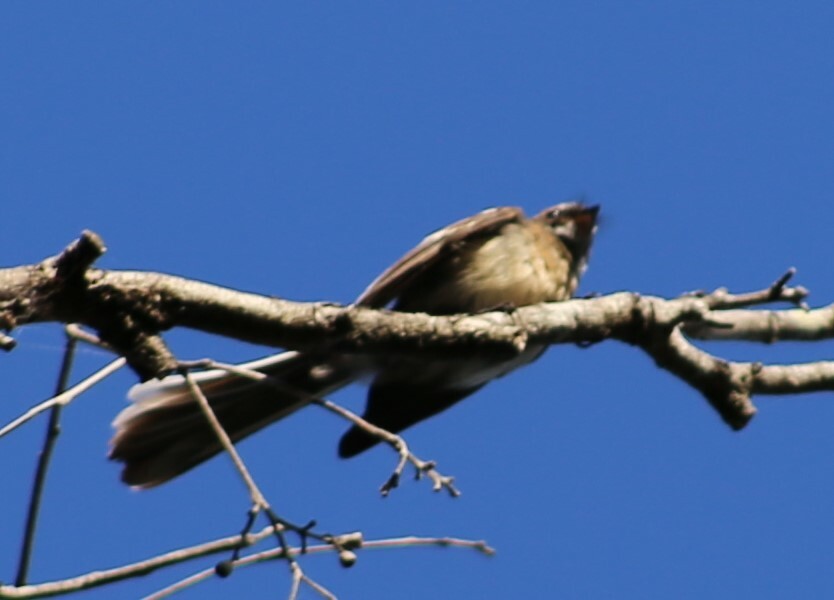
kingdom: Animalia
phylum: Chordata
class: Aves
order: Passeriformes
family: Rhipiduridae
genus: Rhipidura
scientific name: Rhipidura albiscapa
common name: Grey fantail
